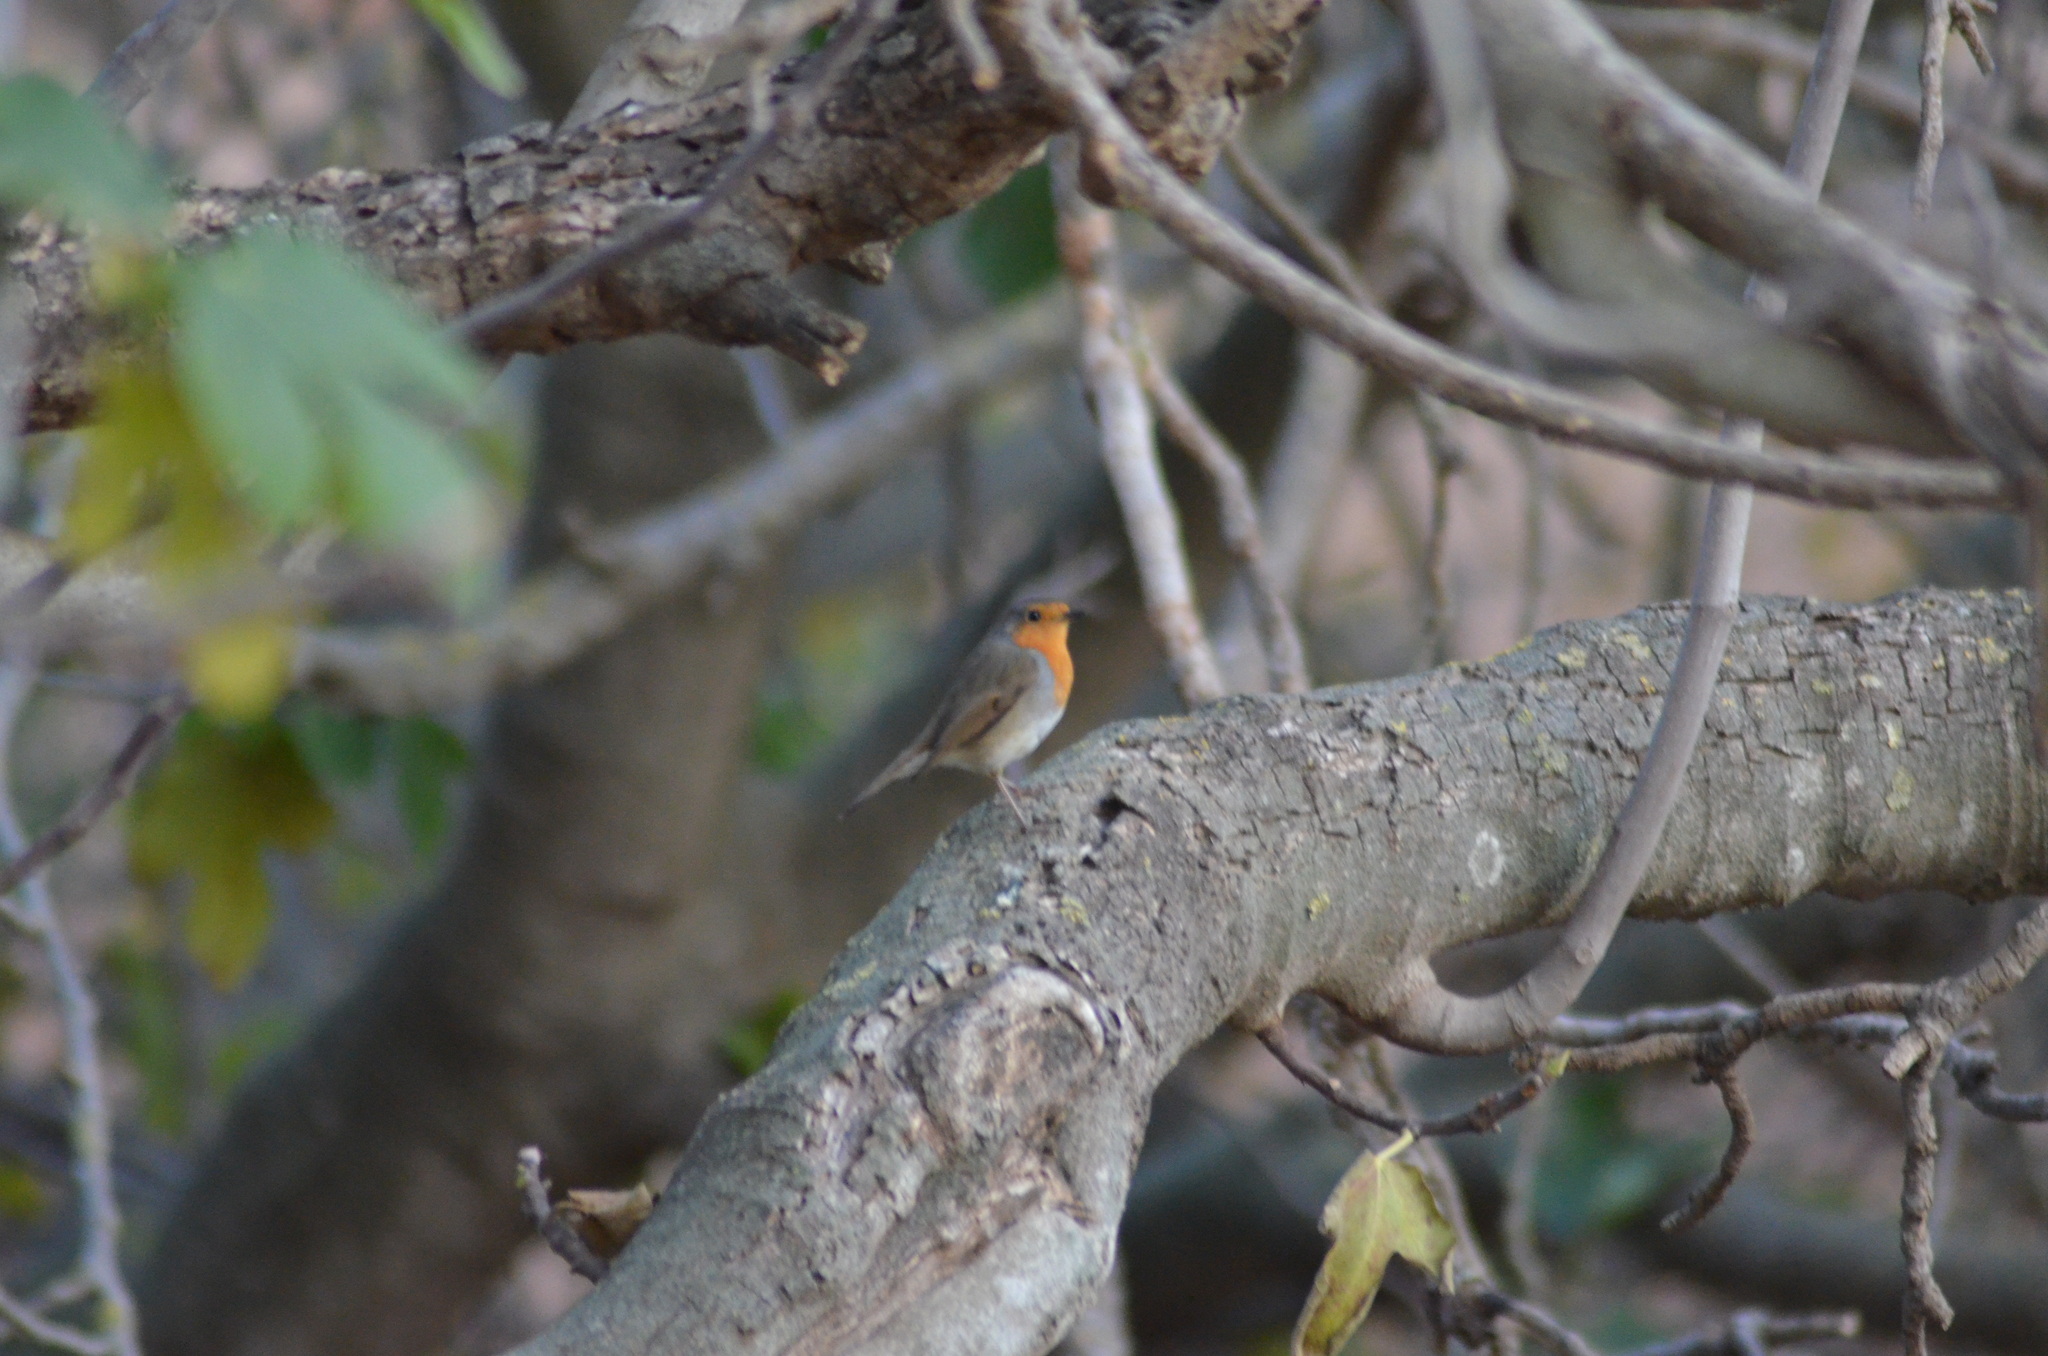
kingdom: Animalia
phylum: Chordata
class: Aves
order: Passeriformes
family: Muscicapidae
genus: Erithacus
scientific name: Erithacus rubecula
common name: European robin
